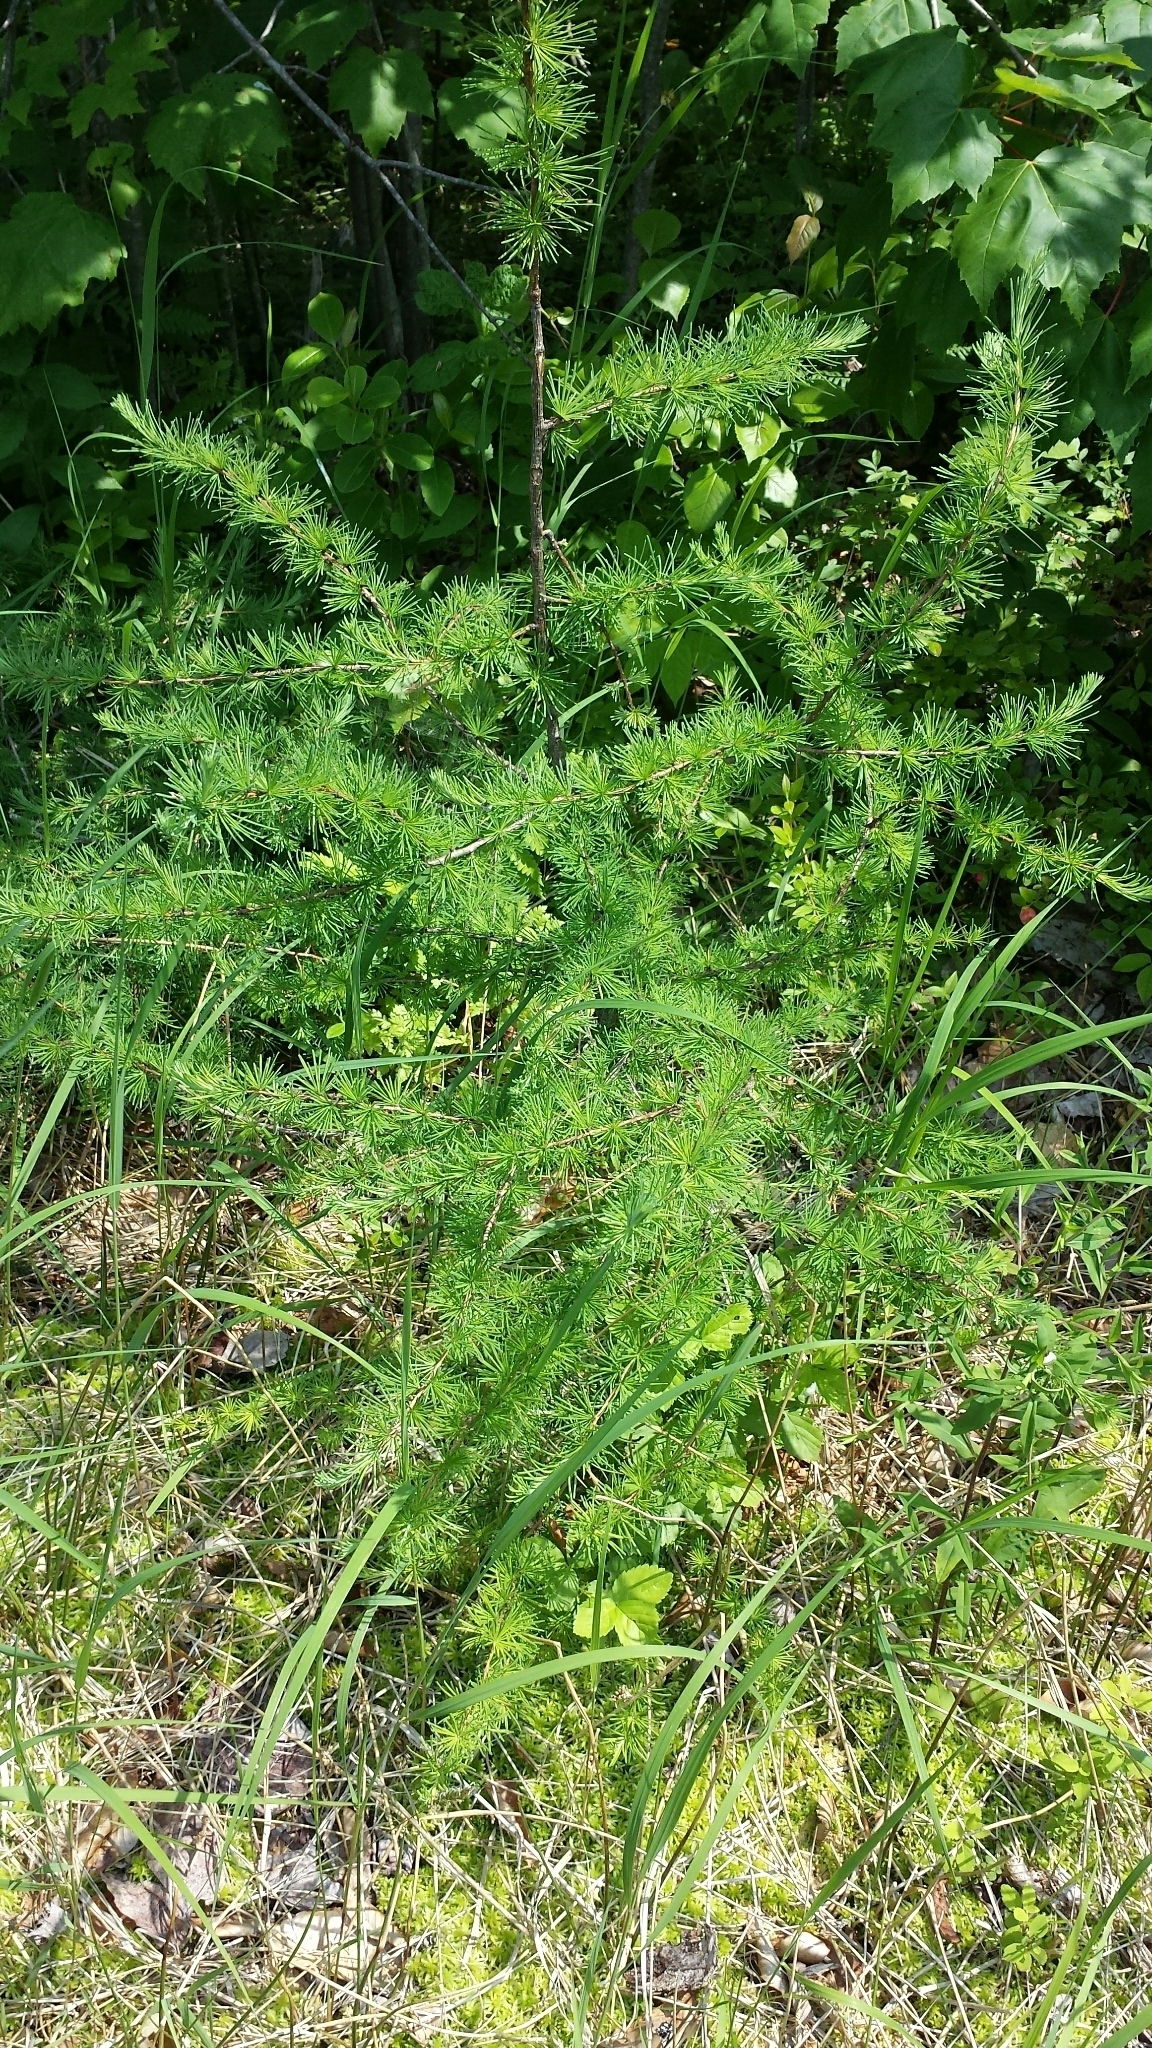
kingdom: Plantae
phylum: Tracheophyta
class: Pinopsida
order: Pinales
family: Pinaceae
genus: Larix
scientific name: Larix laricina
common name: American larch
